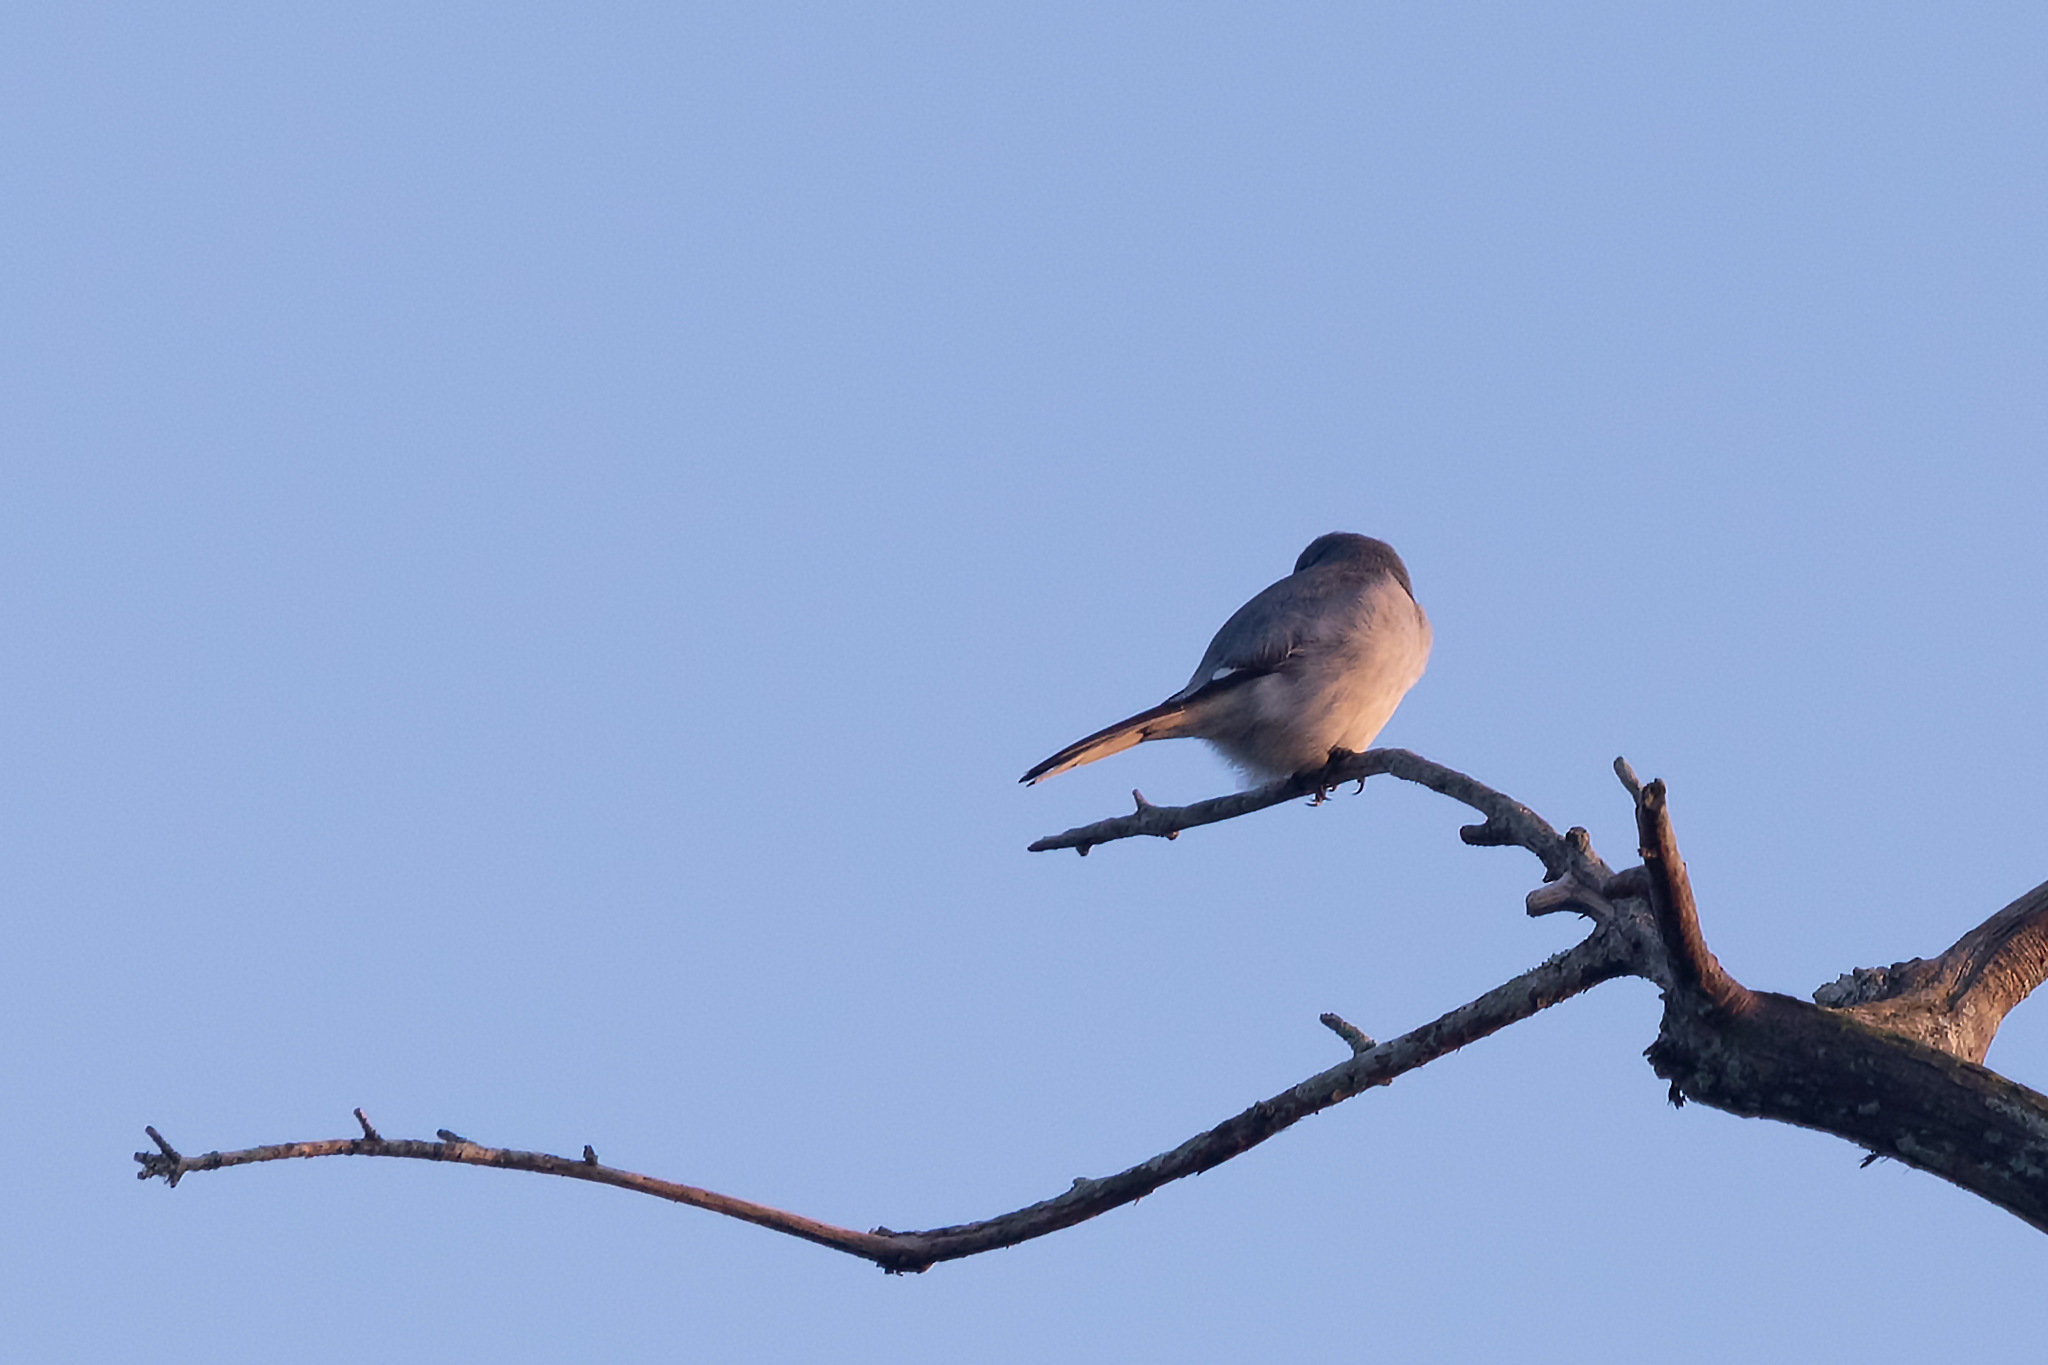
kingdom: Animalia
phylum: Chordata
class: Aves
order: Passeriformes
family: Laniidae
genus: Lanius
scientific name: Lanius ludovicianus
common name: Loggerhead shrike
